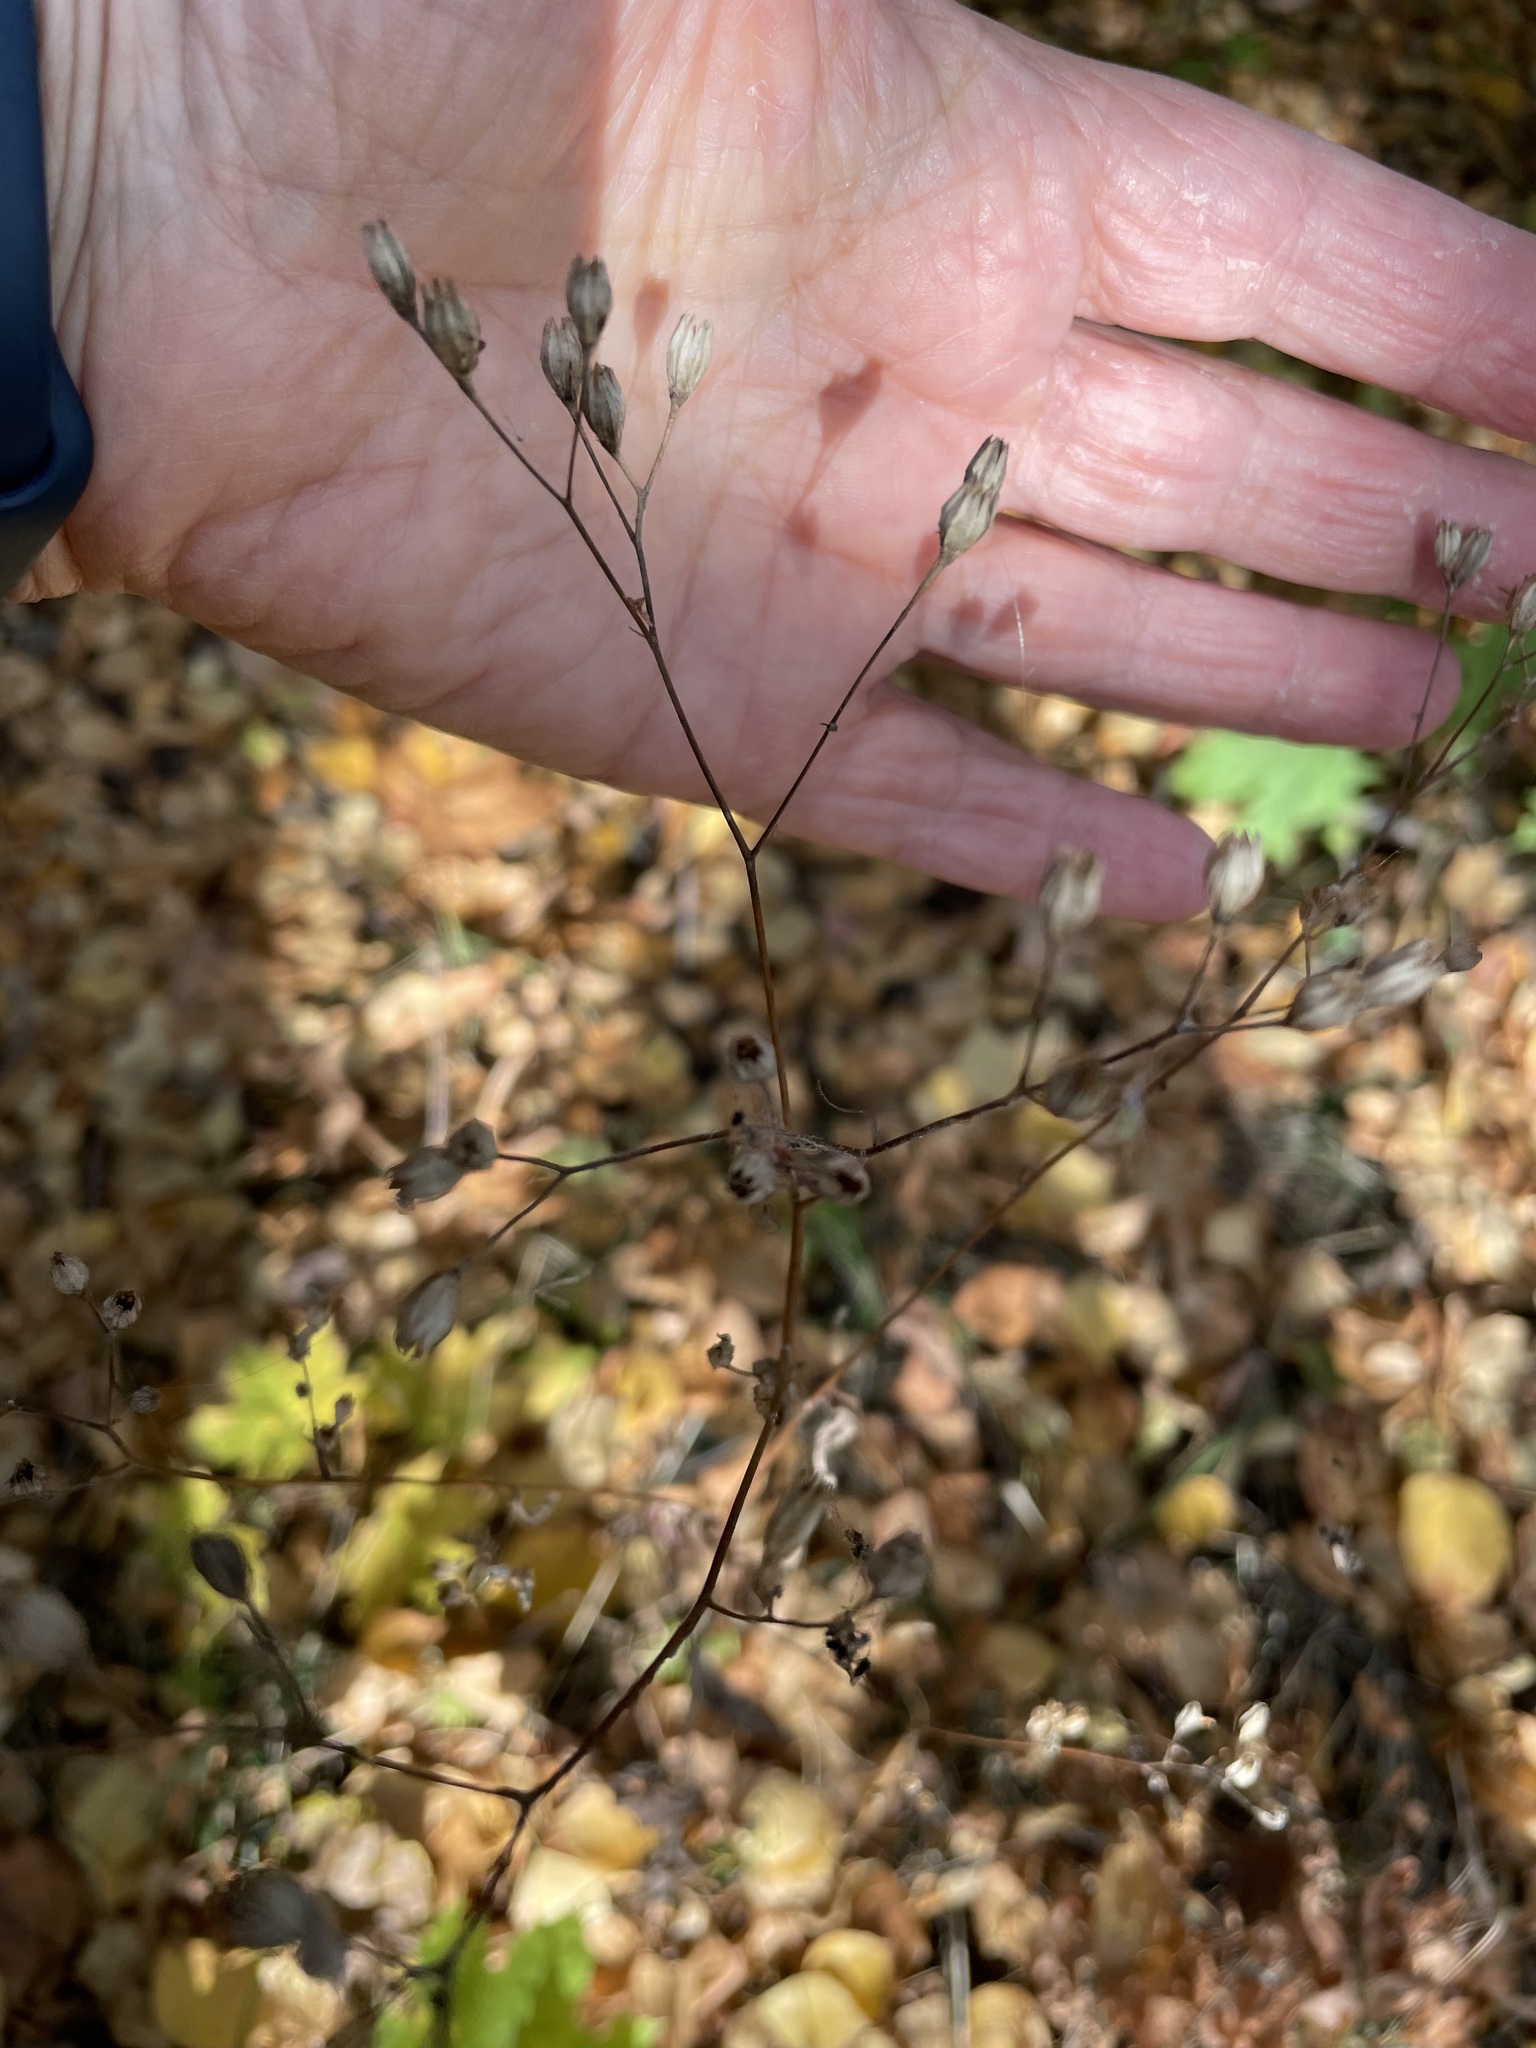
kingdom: Plantae
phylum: Tracheophyta
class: Magnoliopsida
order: Asterales
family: Asteraceae
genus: Lapsana
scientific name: Lapsana communis
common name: Nipplewort
